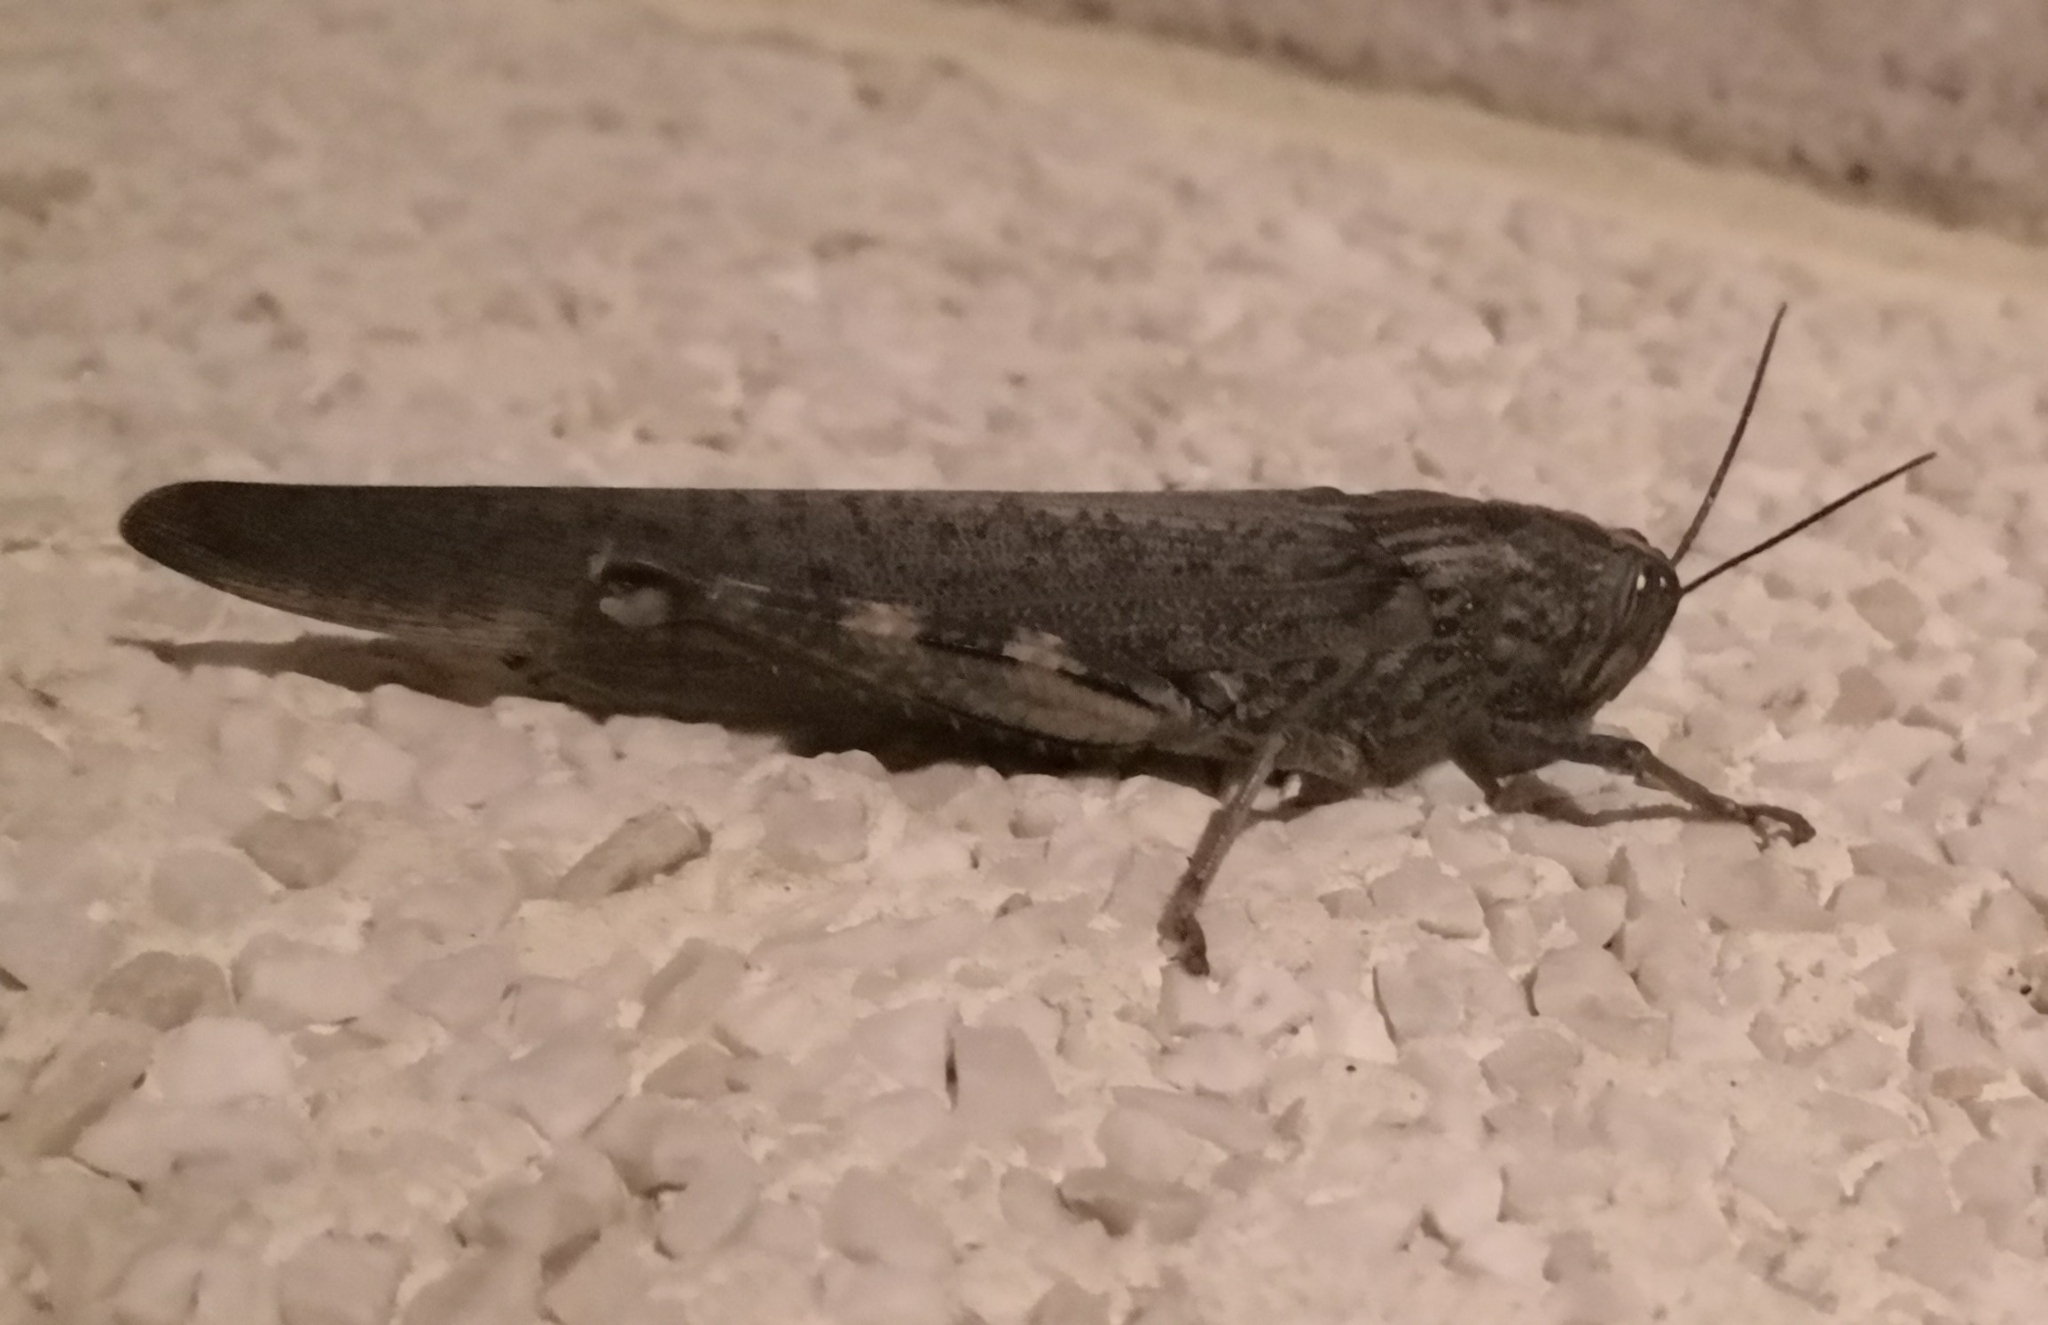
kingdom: Animalia
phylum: Arthropoda
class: Insecta
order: Orthoptera
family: Acrididae
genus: Anacridium
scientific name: Anacridium aegyptium
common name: Egyptian grasshopper
